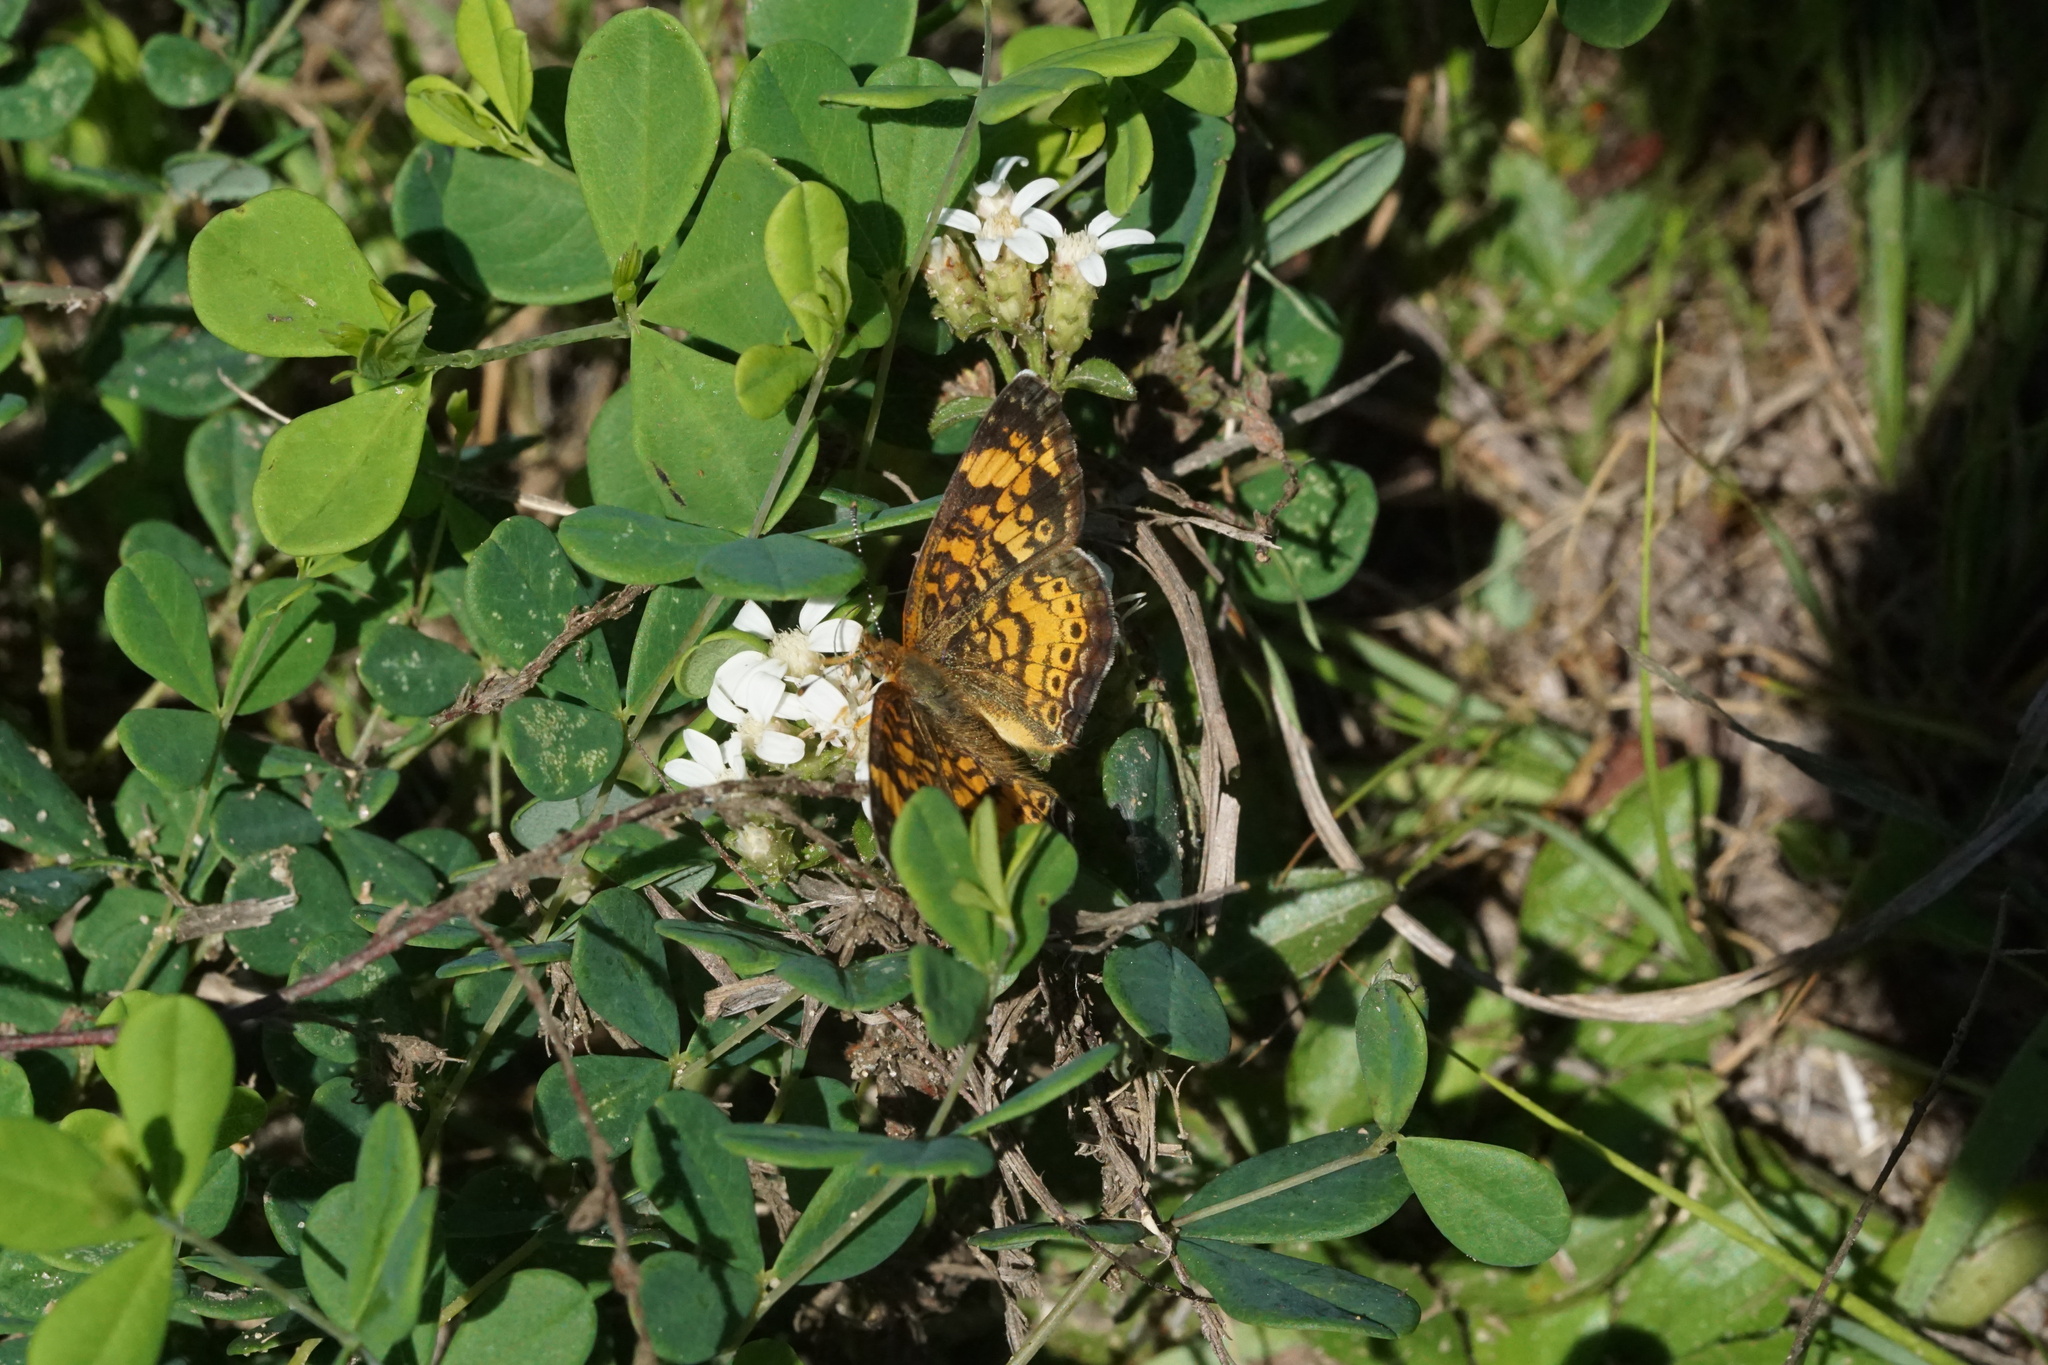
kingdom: Animalia
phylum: Arthropoda
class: Insecta
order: Lepidoptera
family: Nymphalidae
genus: Phyciodes
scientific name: Phyciodes tharos
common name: Pearl crescent
